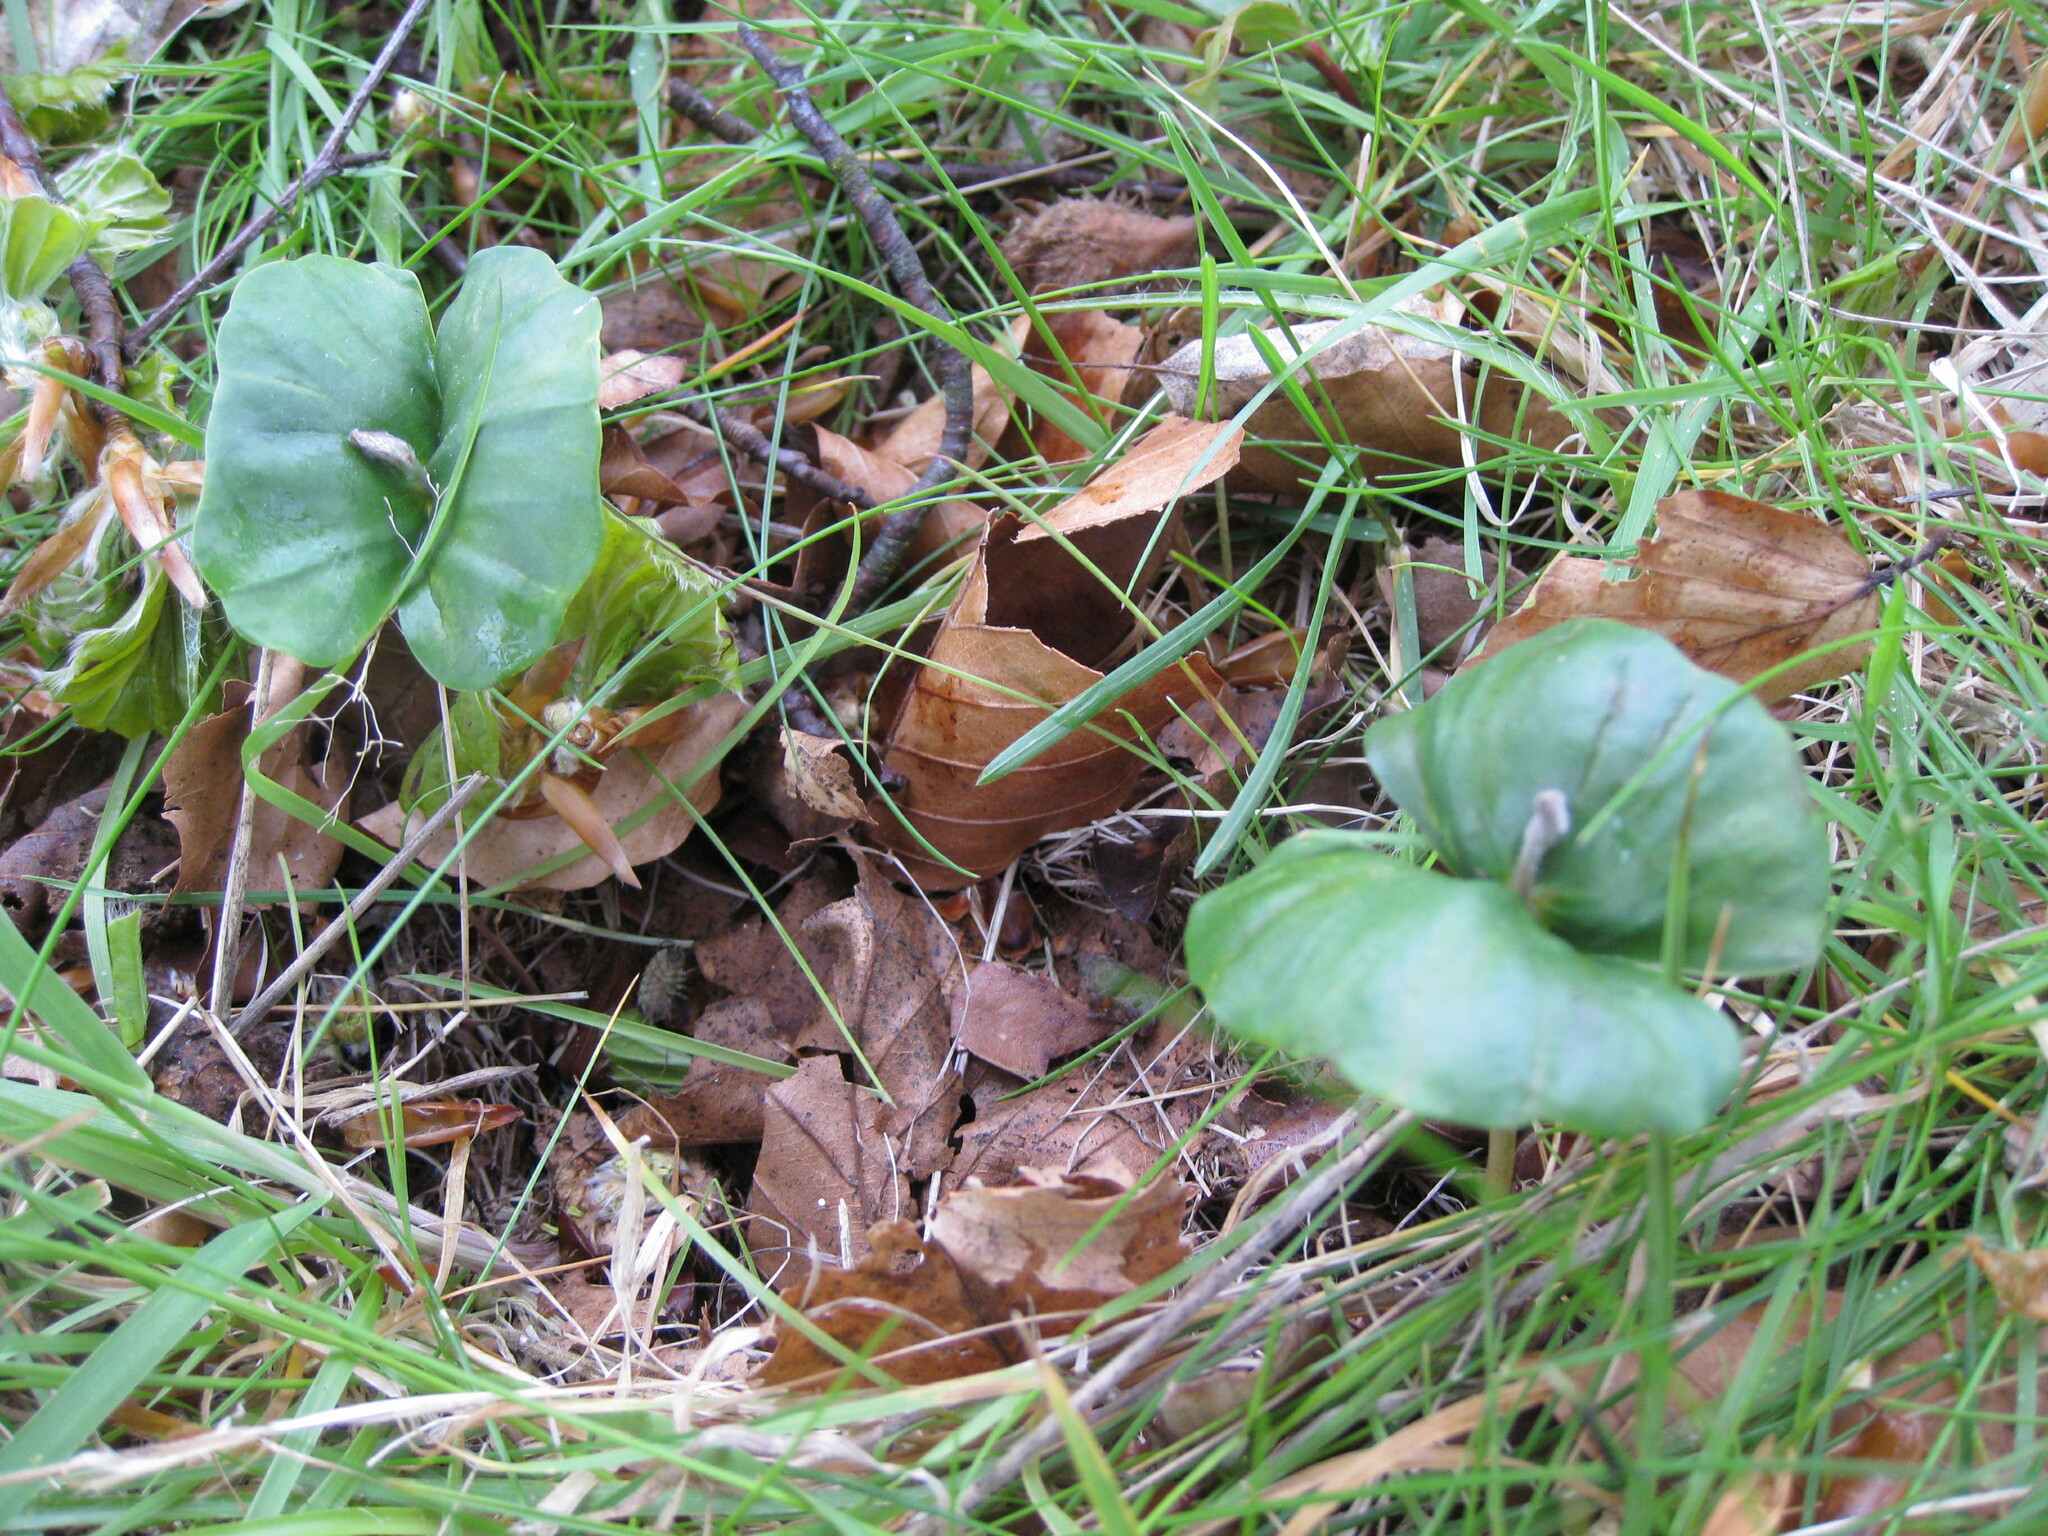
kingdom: Plantae
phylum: Tracheophyta
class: Magnoliopsida
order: Fagales
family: Fagaceae
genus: Fagus
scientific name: Fagus sylvatica
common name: Beech
